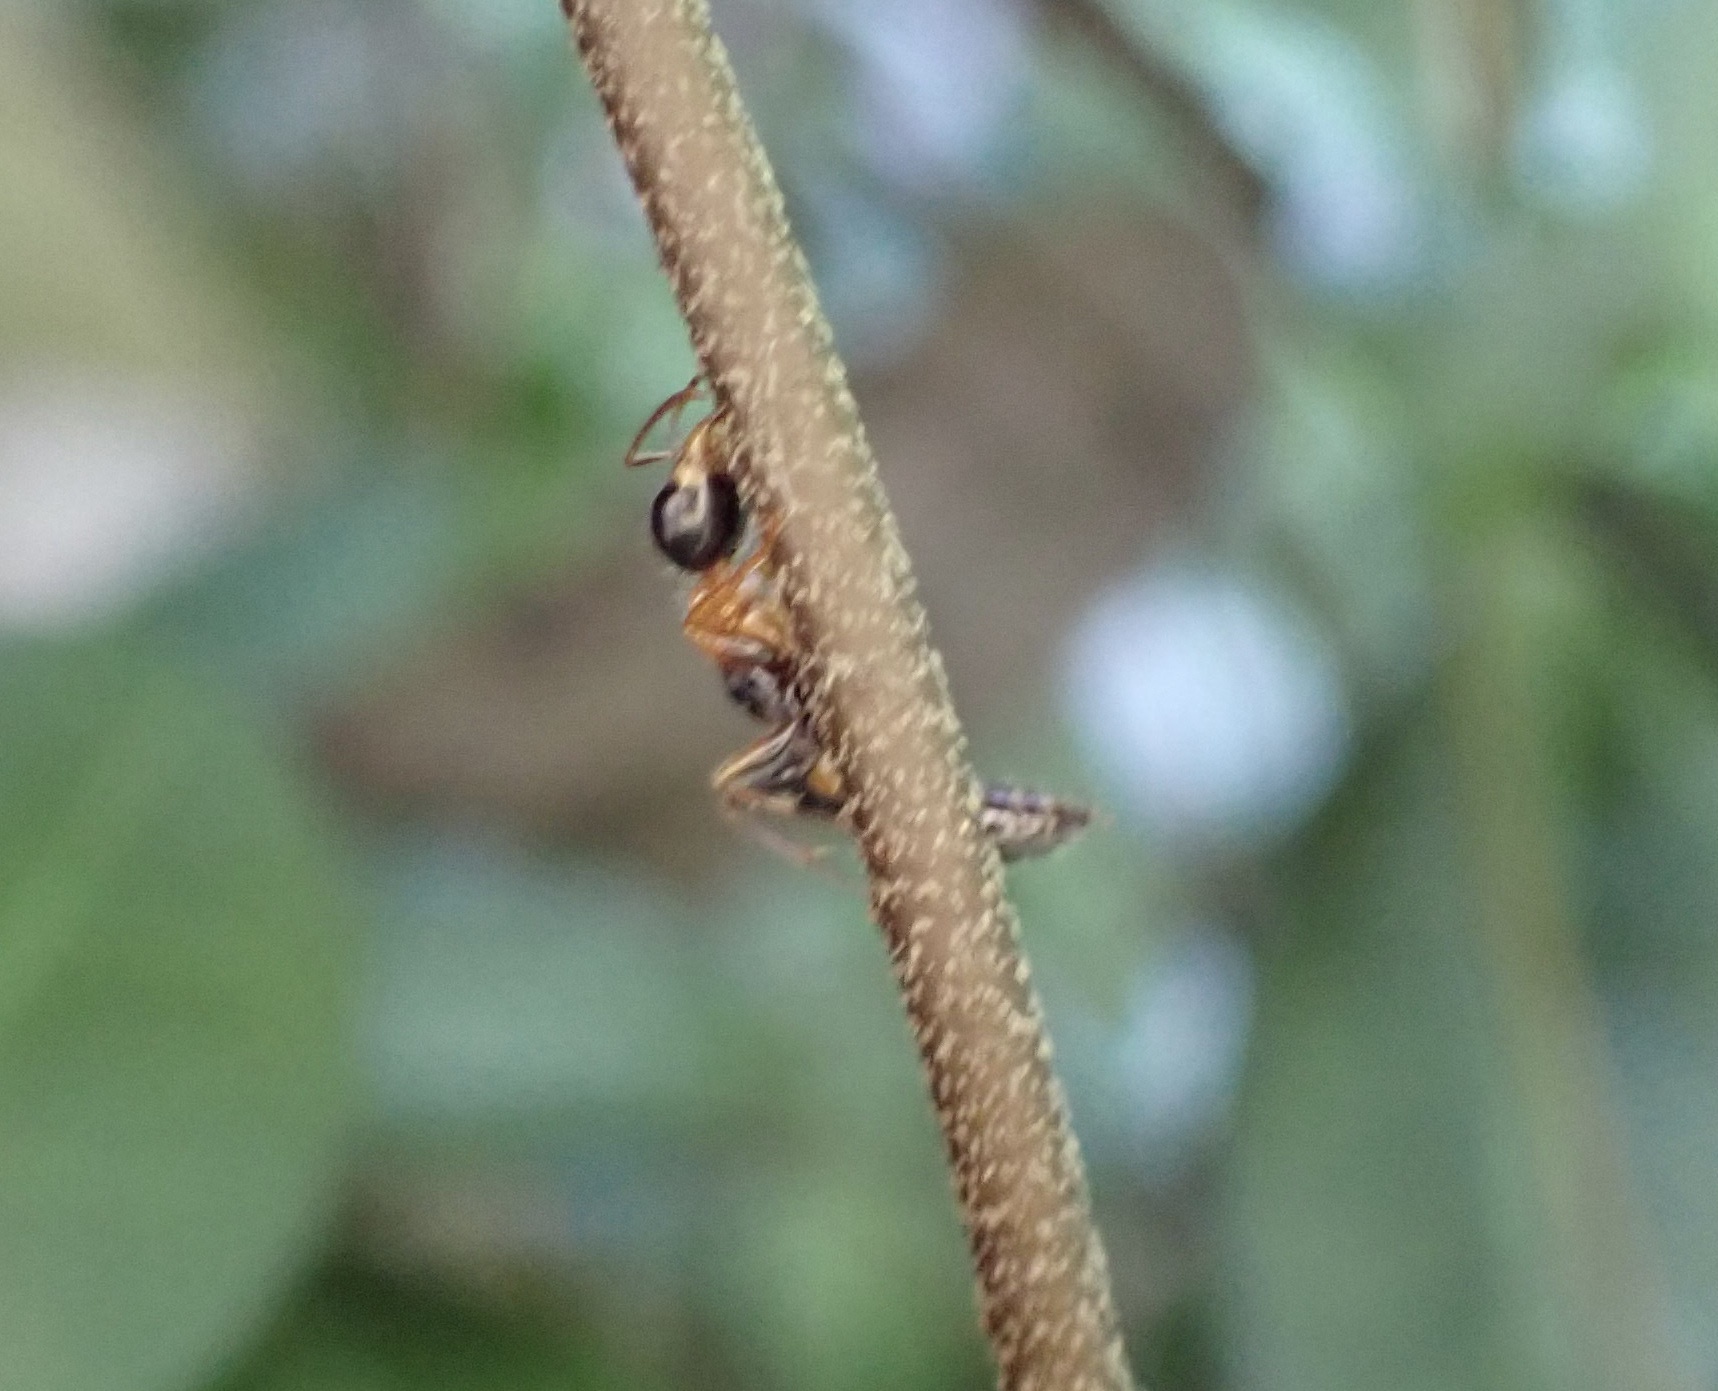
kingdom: Animalia
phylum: Arthropoda
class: Insecta
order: Hymenoptera
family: Formicidae
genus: Pseudomyrmex
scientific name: Pseudomyrmex gracilis
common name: Graceful twig ant
